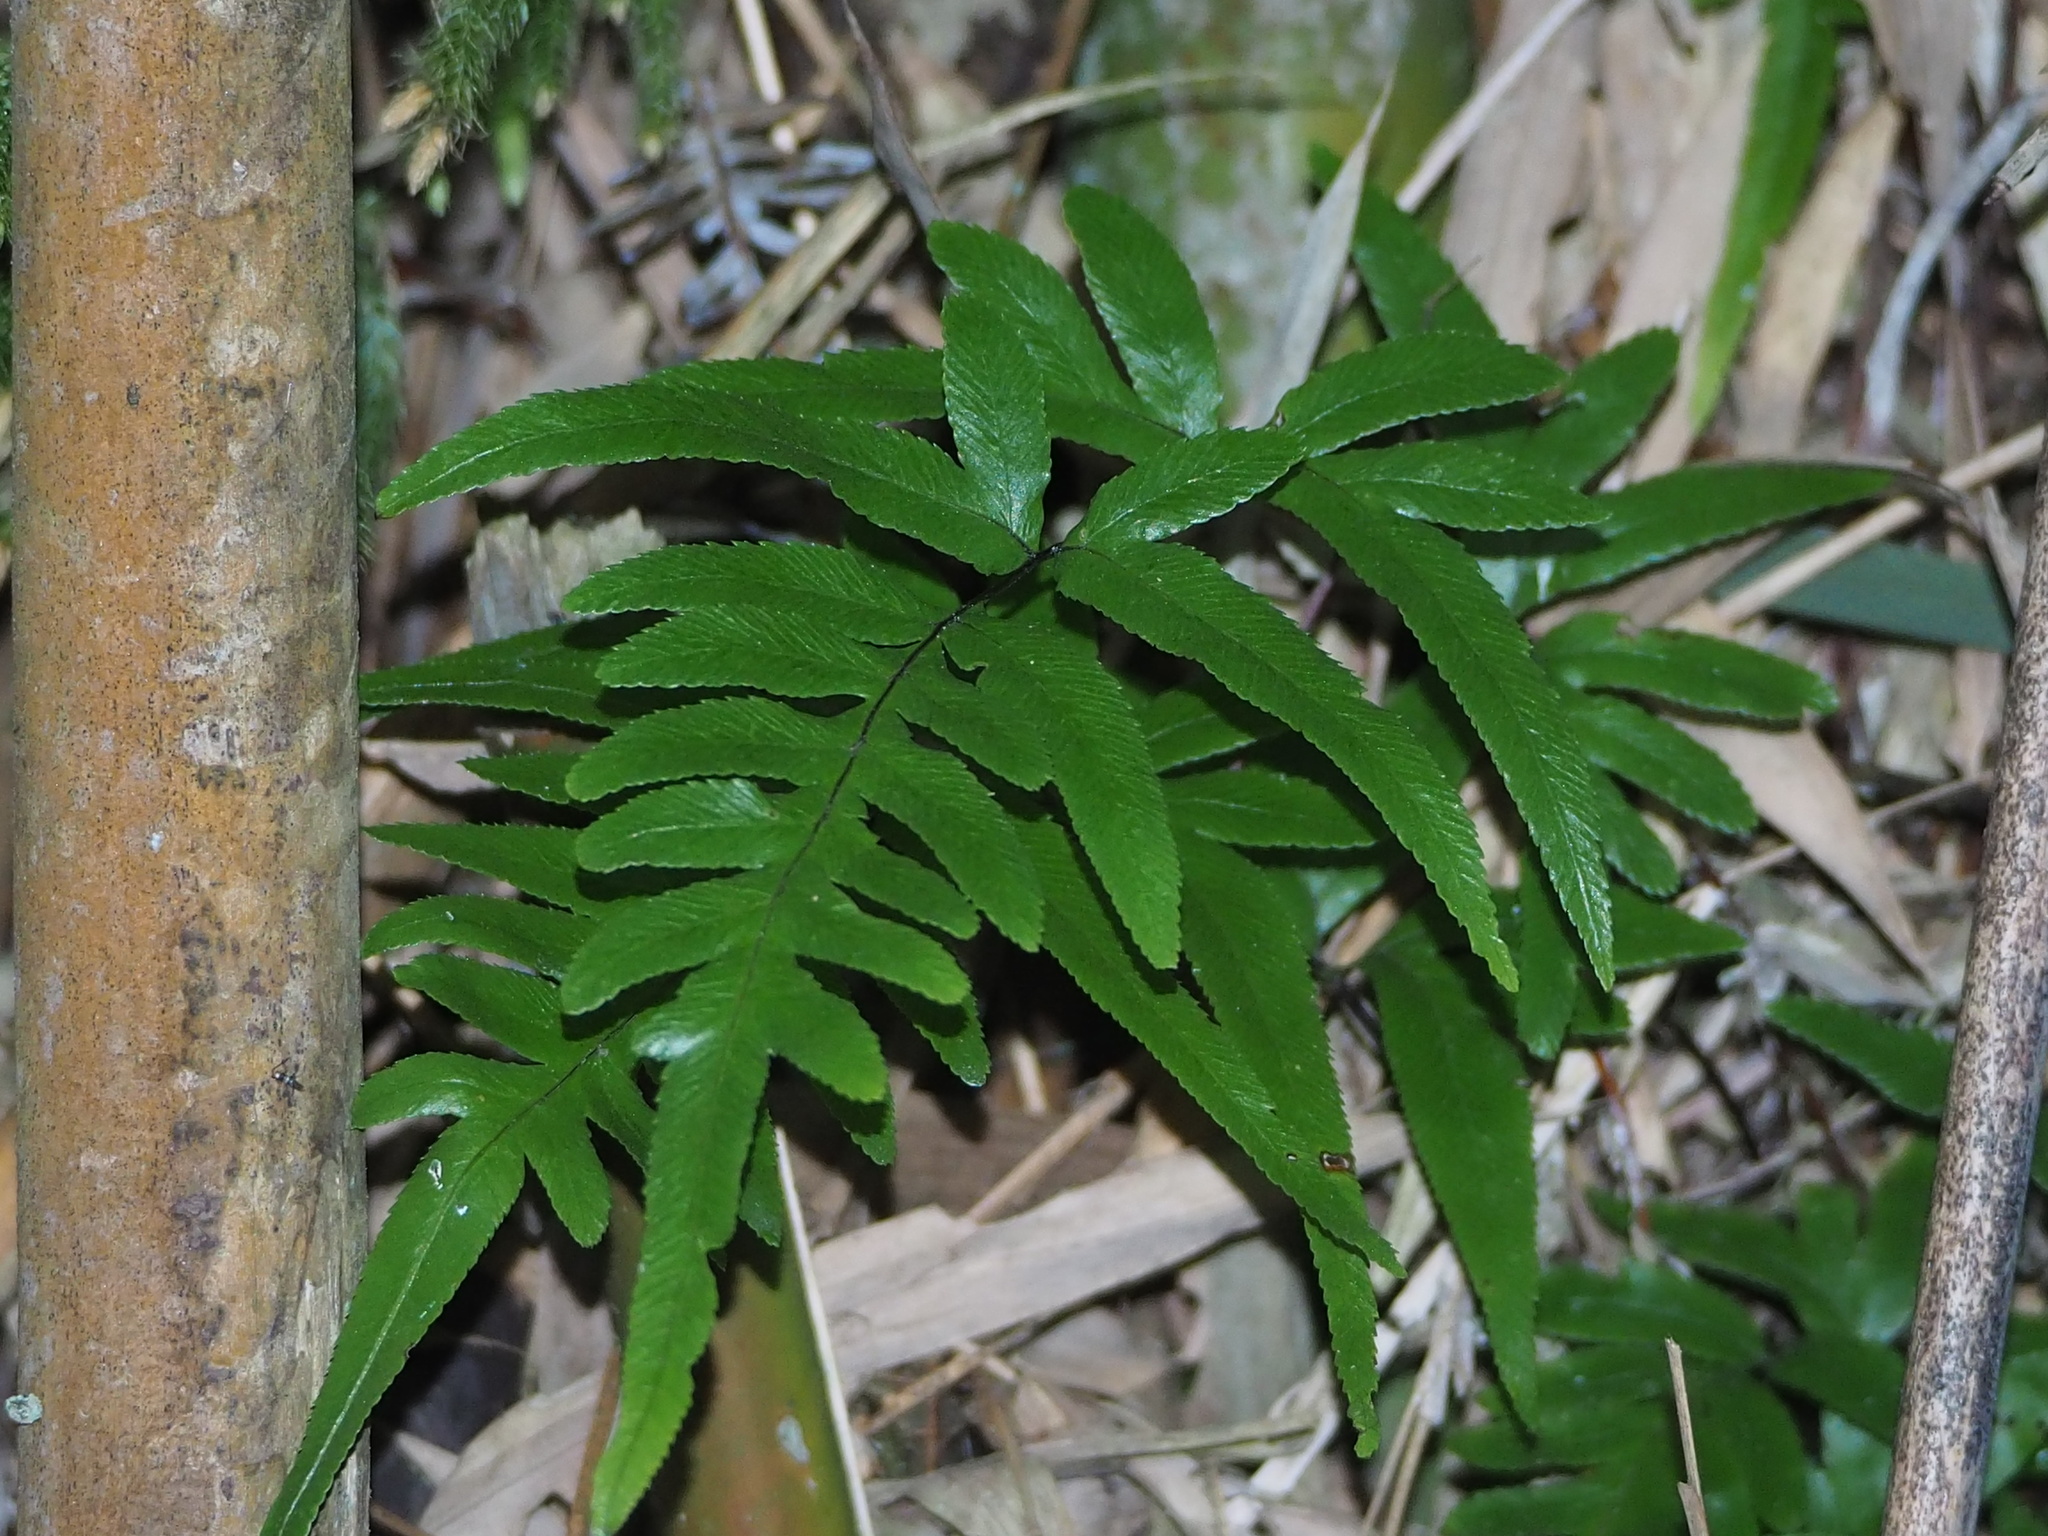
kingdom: Plantae
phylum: Tracheophyta
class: Polypodiopsida
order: Polypodiales
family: Pteridaceae
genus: Pteris
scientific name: Pteris semipinnata
